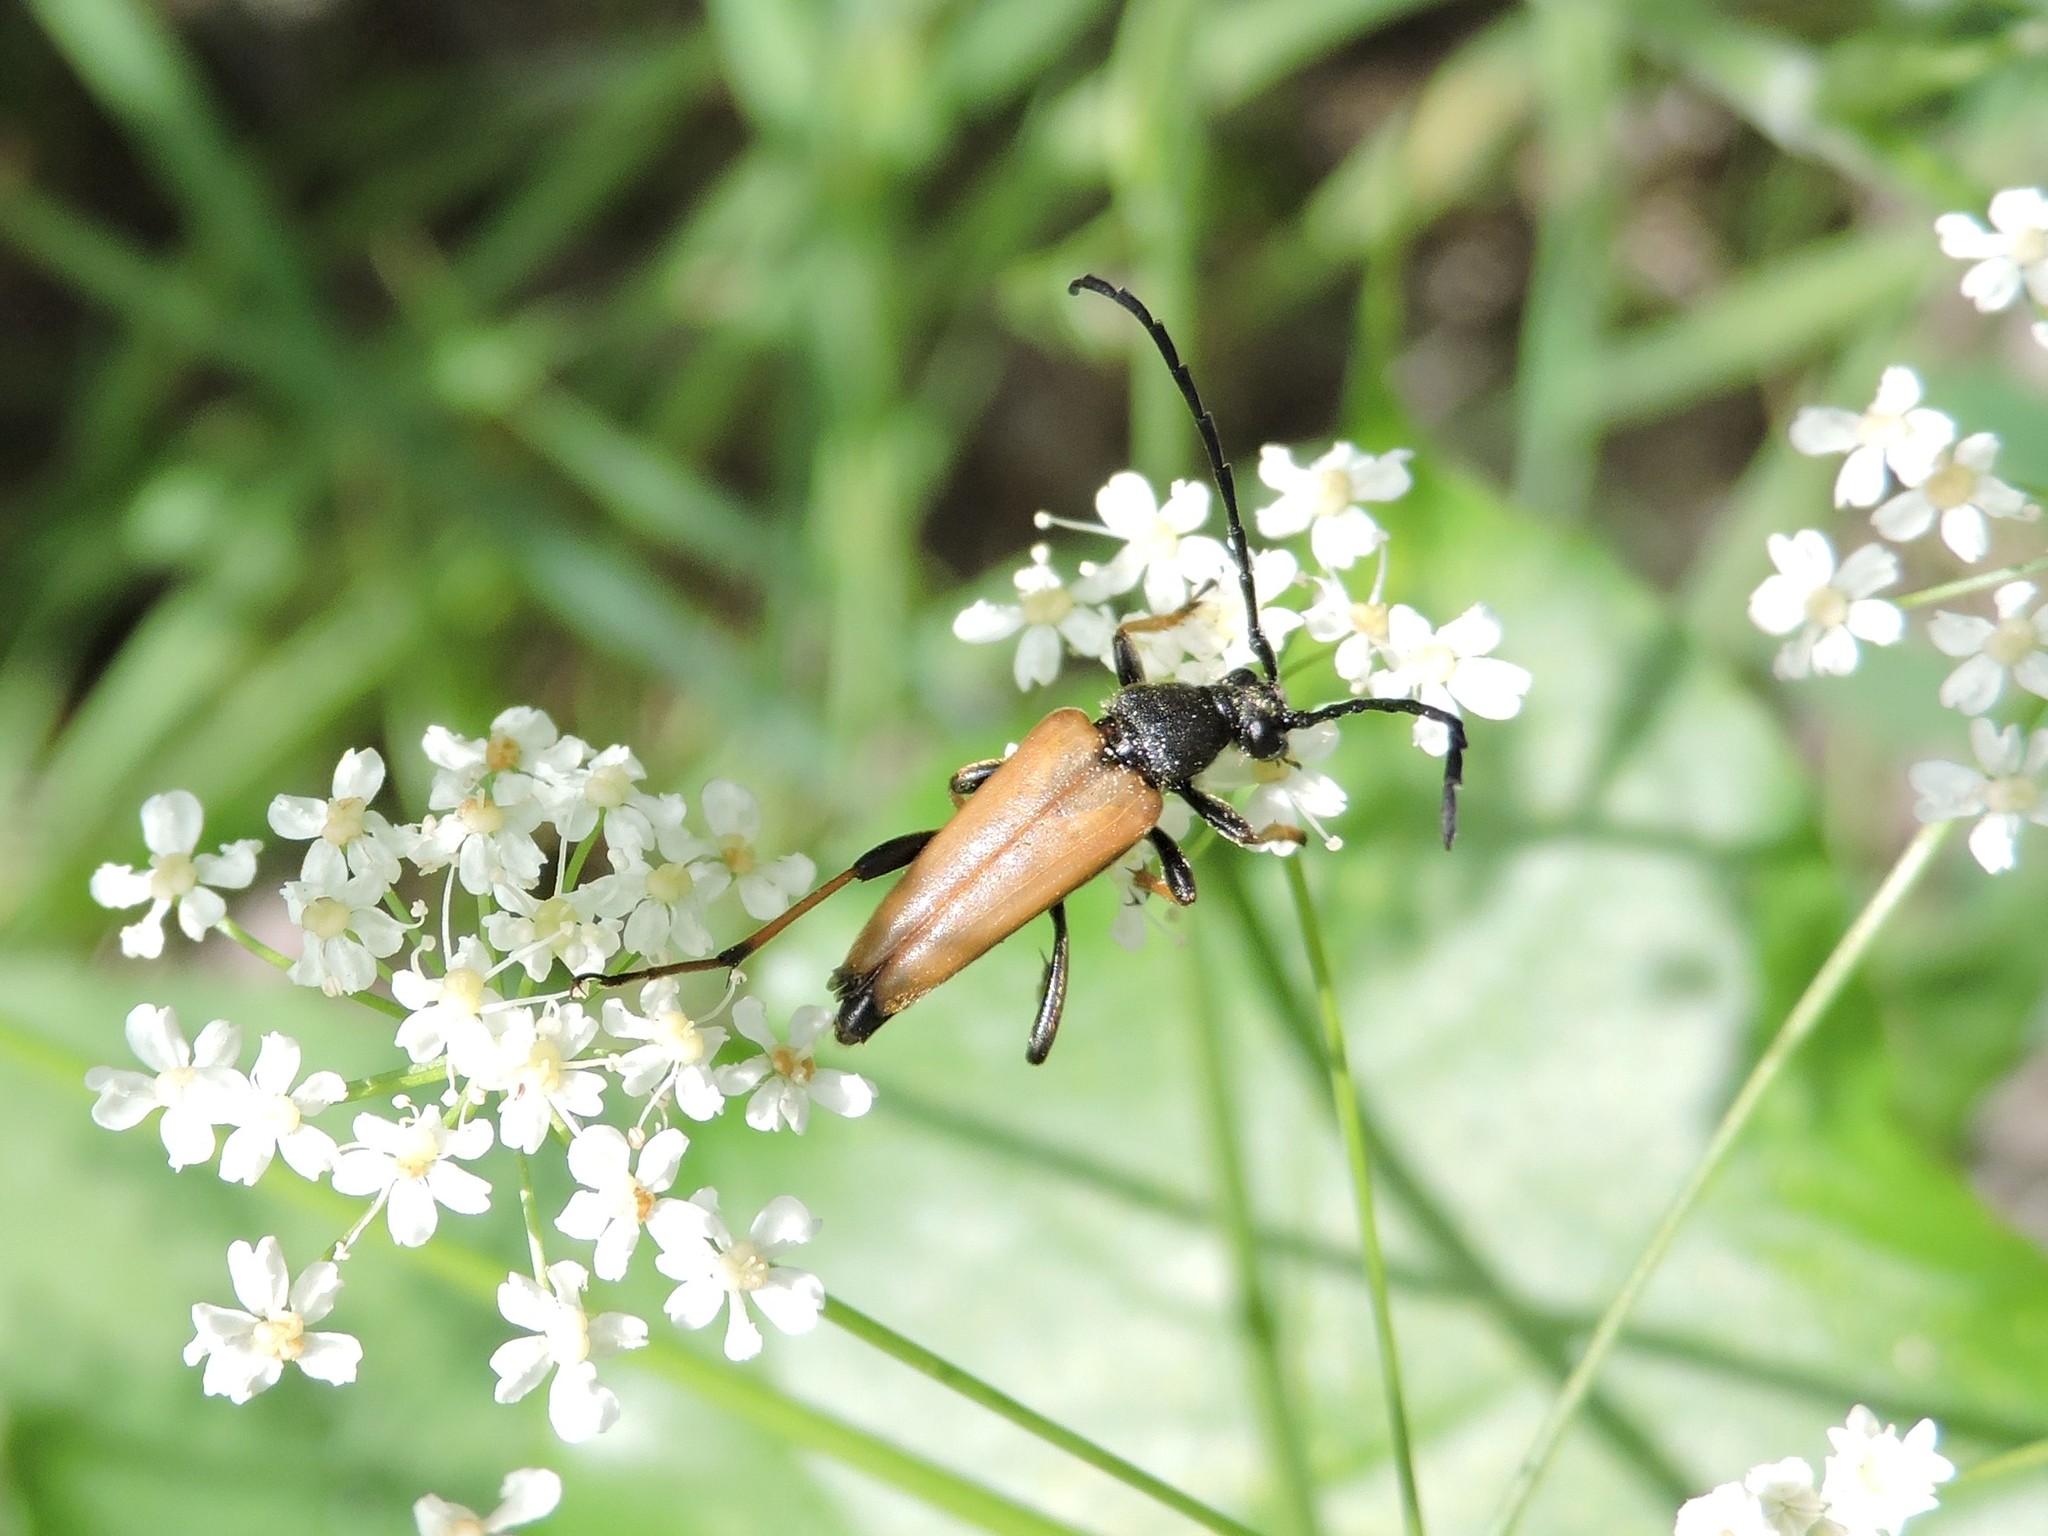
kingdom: Animalia
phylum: Arthropoda
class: Insecta
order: Coleoptera
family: Cerambycidae
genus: Stictoleptura
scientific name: Stictoleptura rubra
